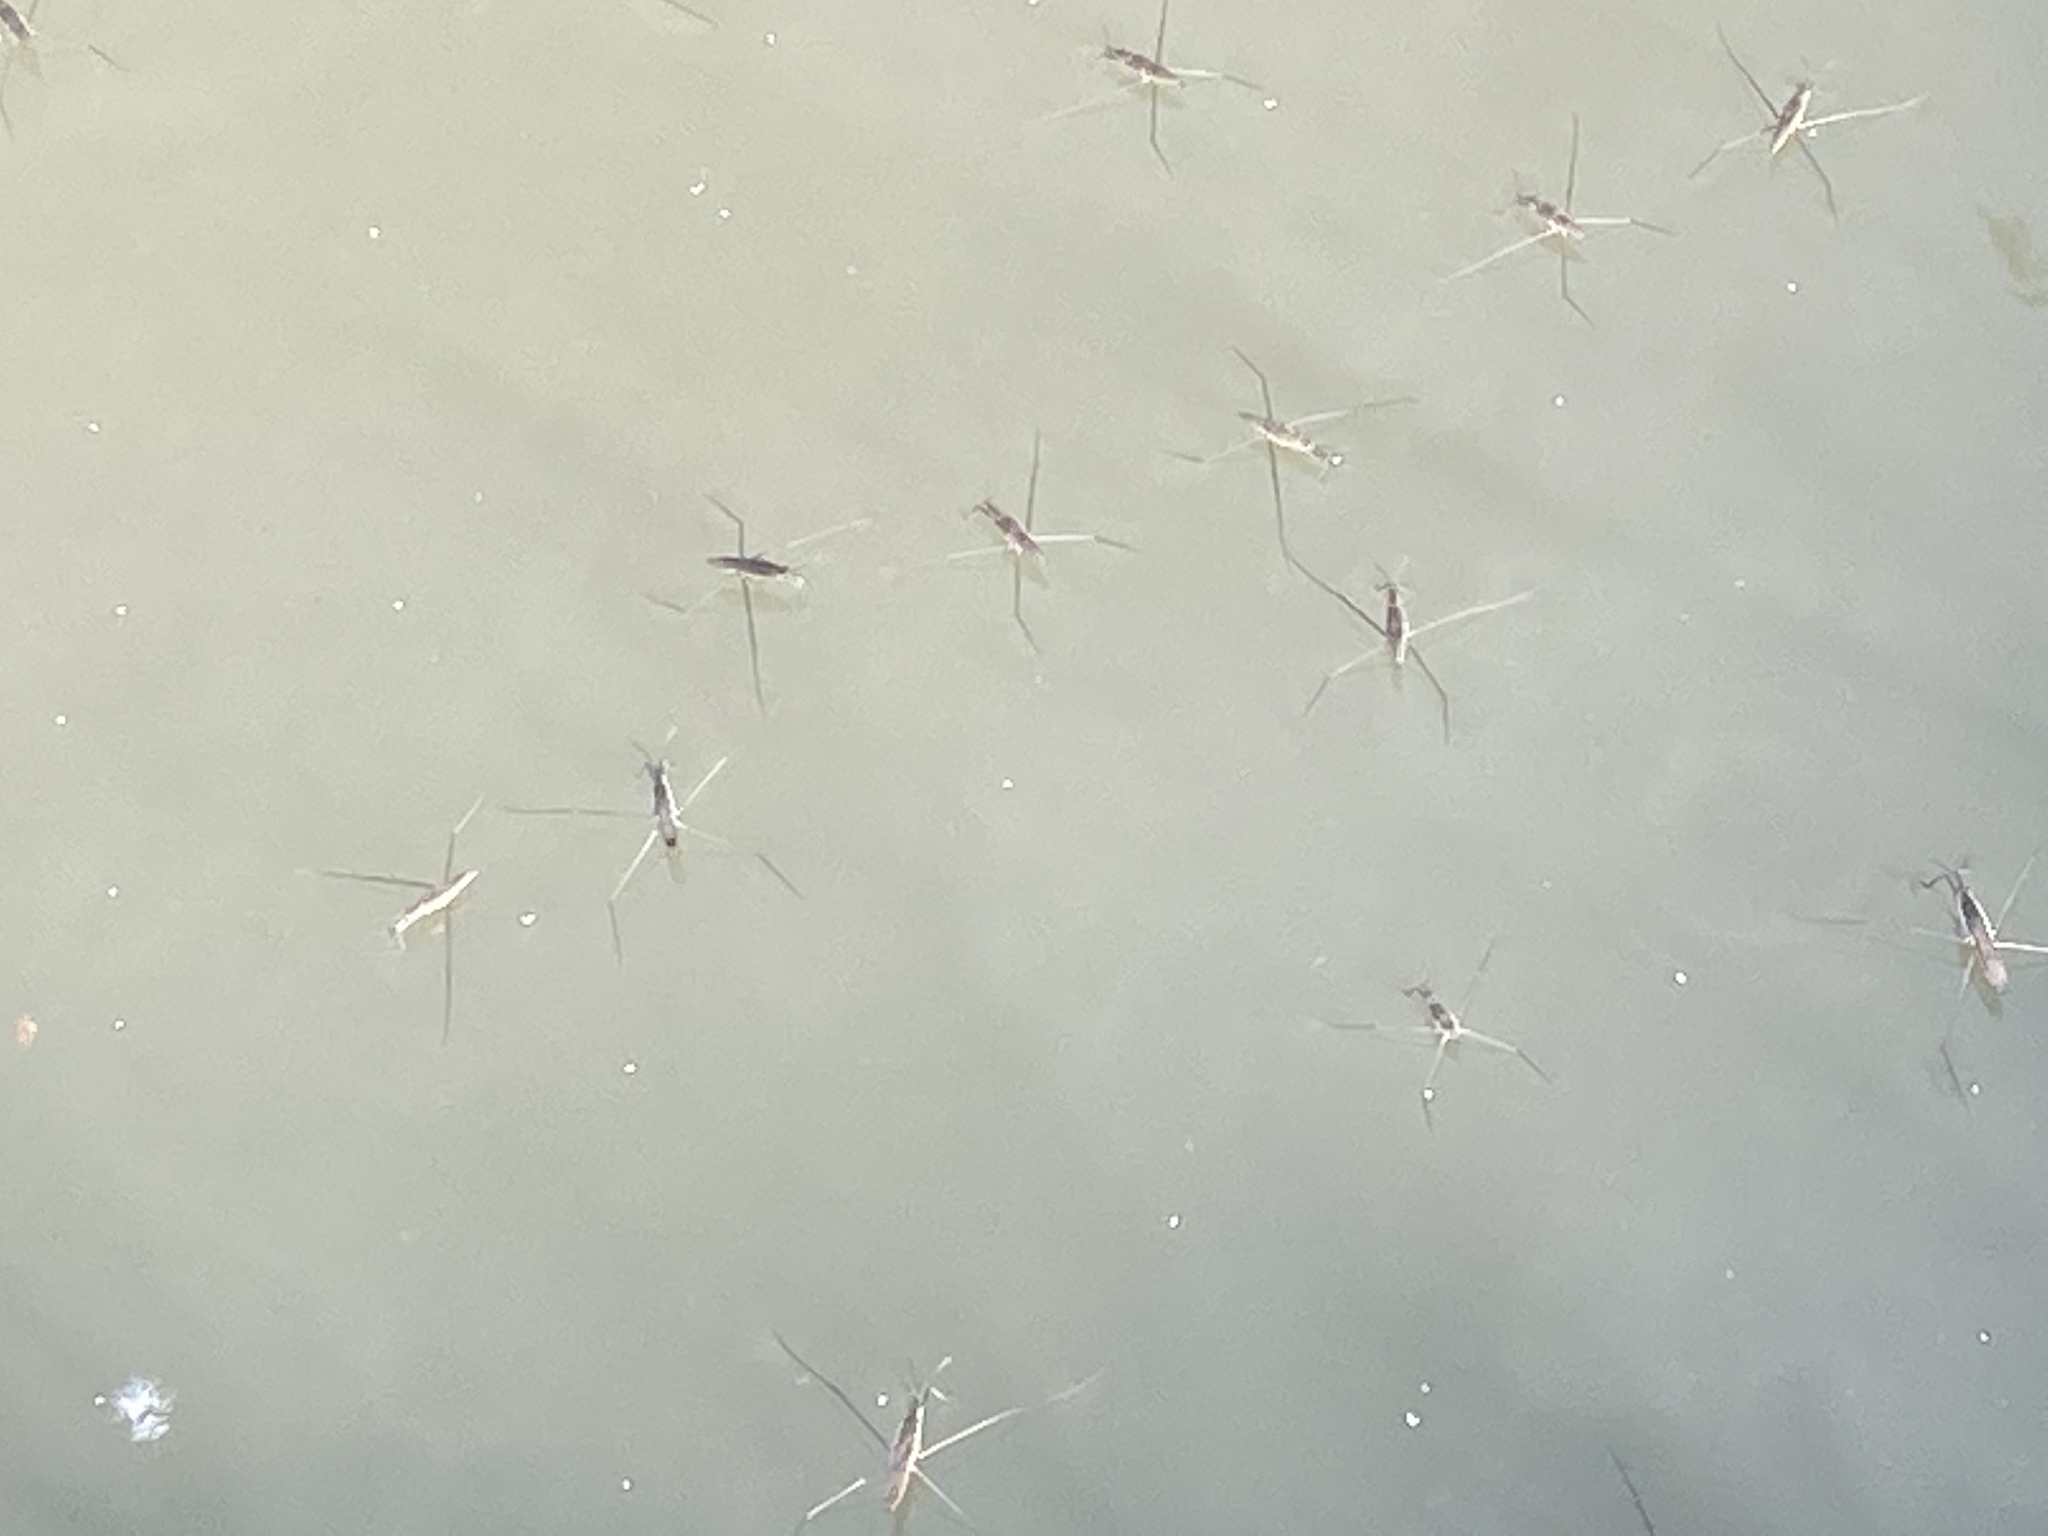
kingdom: Animalia
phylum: Arthropoda
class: Insecta
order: Hemiptera
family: Gerridae
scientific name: Gerridae
